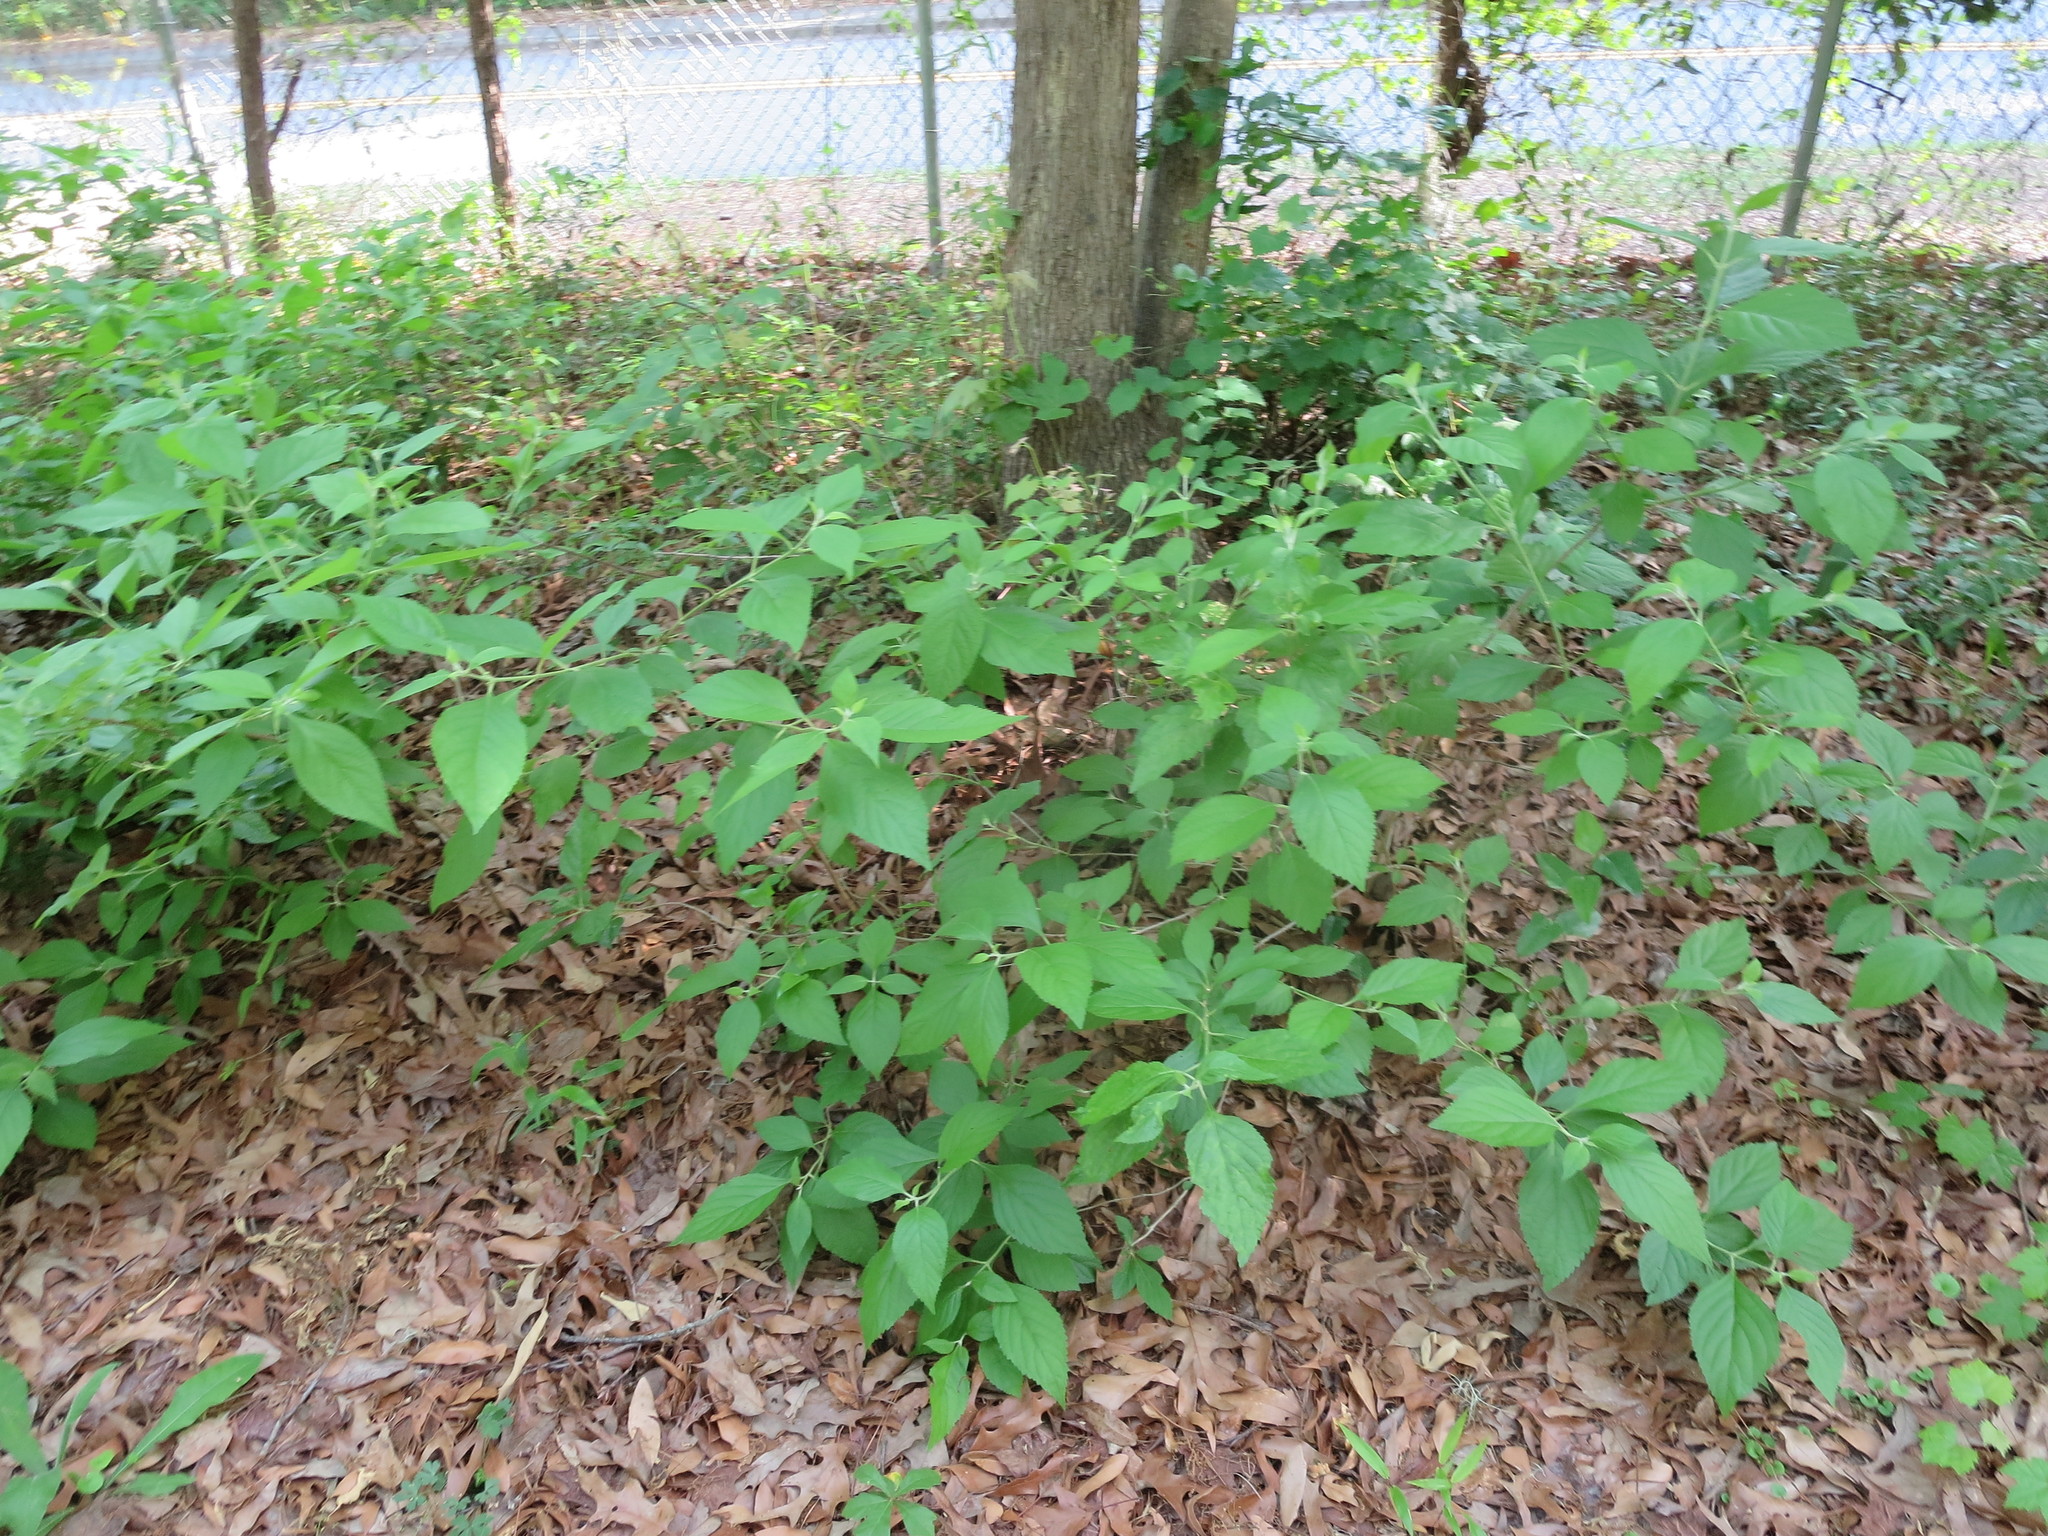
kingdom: Plantae
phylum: Tracheophyta
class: Magnoliopsida
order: Lamiales
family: Lamiaceae
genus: Callicarpa
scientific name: Callicarpa americana
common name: American beautyberry
